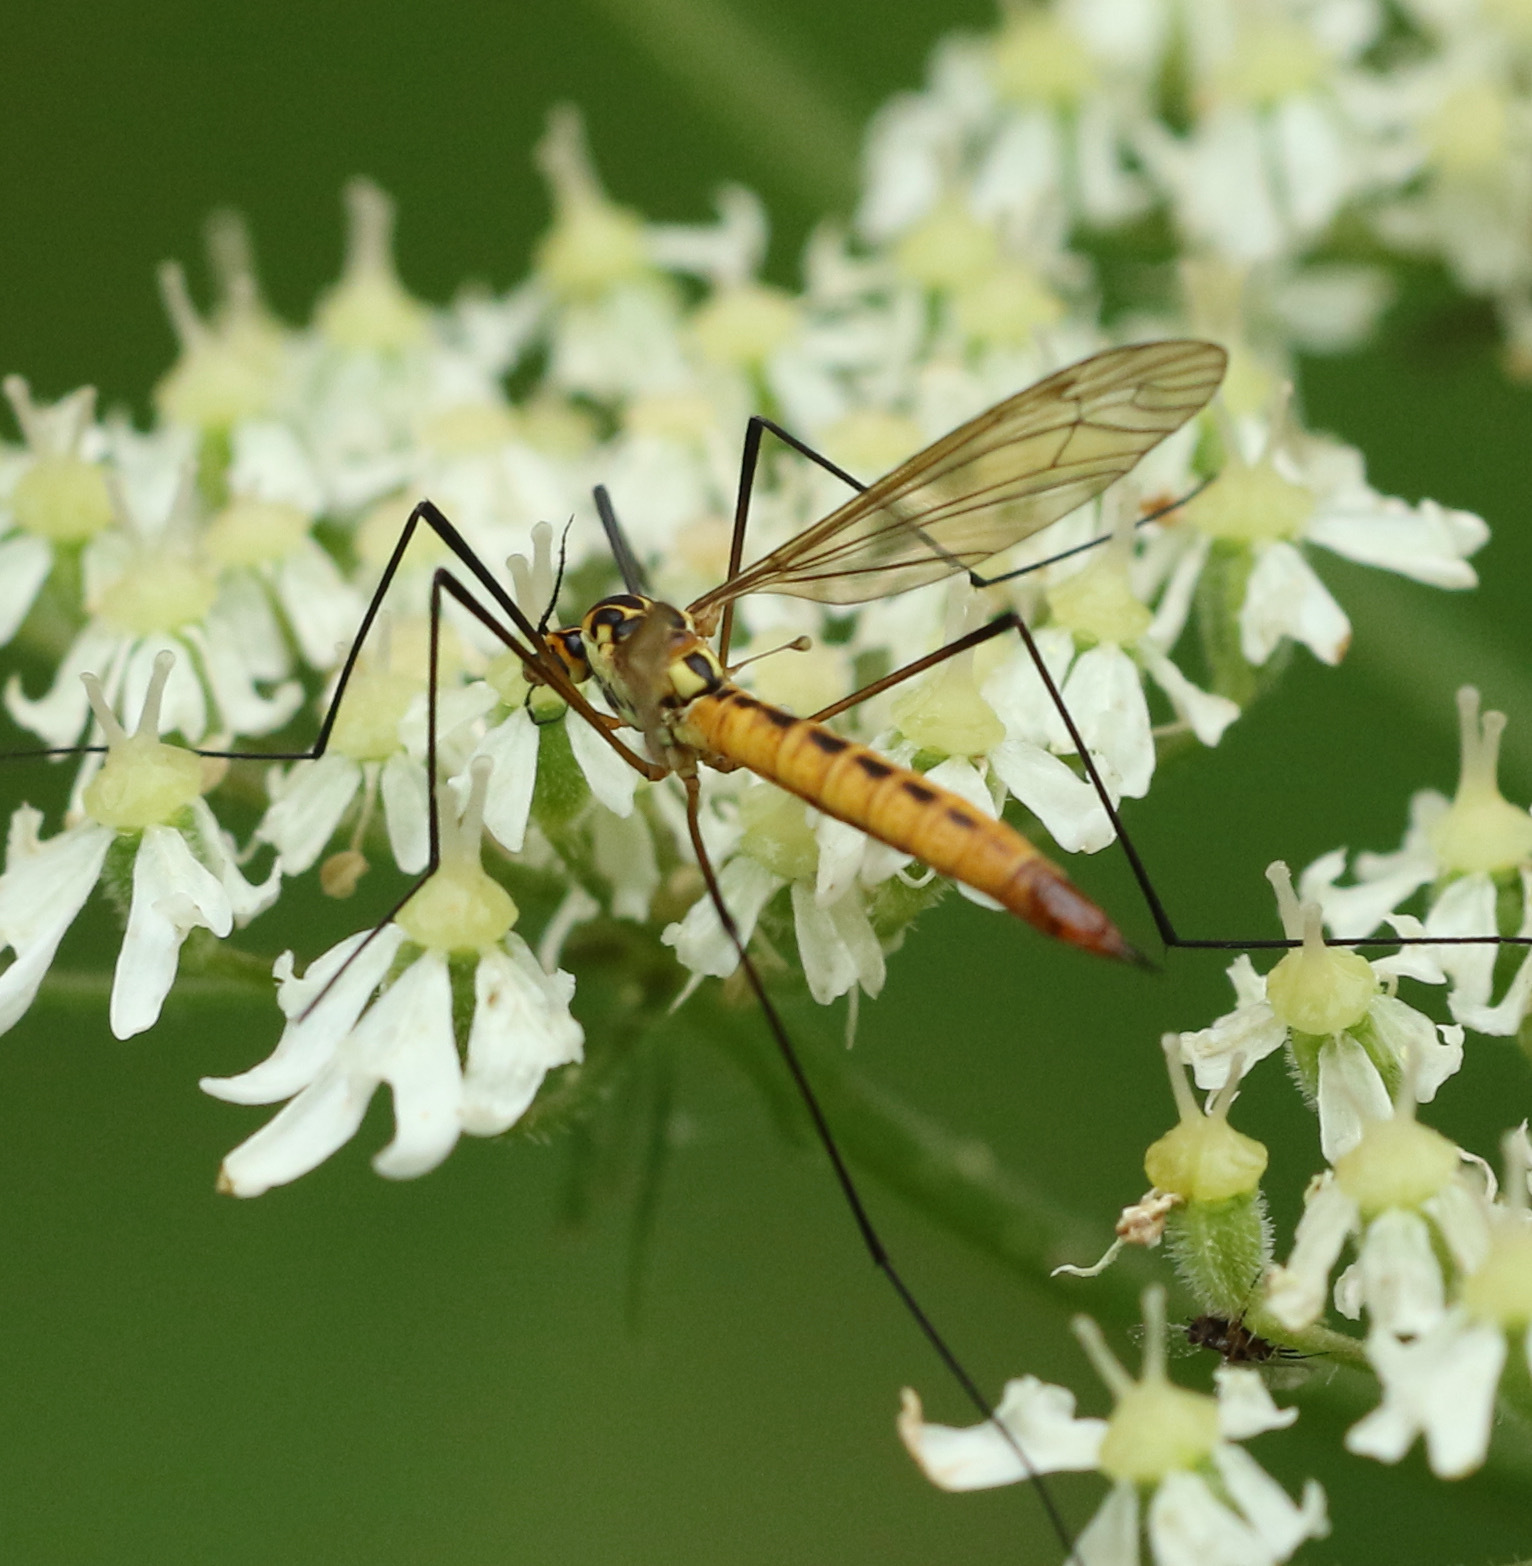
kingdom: Animalia
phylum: Arthropoda
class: Insecta
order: Diptera
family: Tipulidae
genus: Nephrotoma
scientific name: Nephrotoma flavescens
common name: Tiger cranefly
